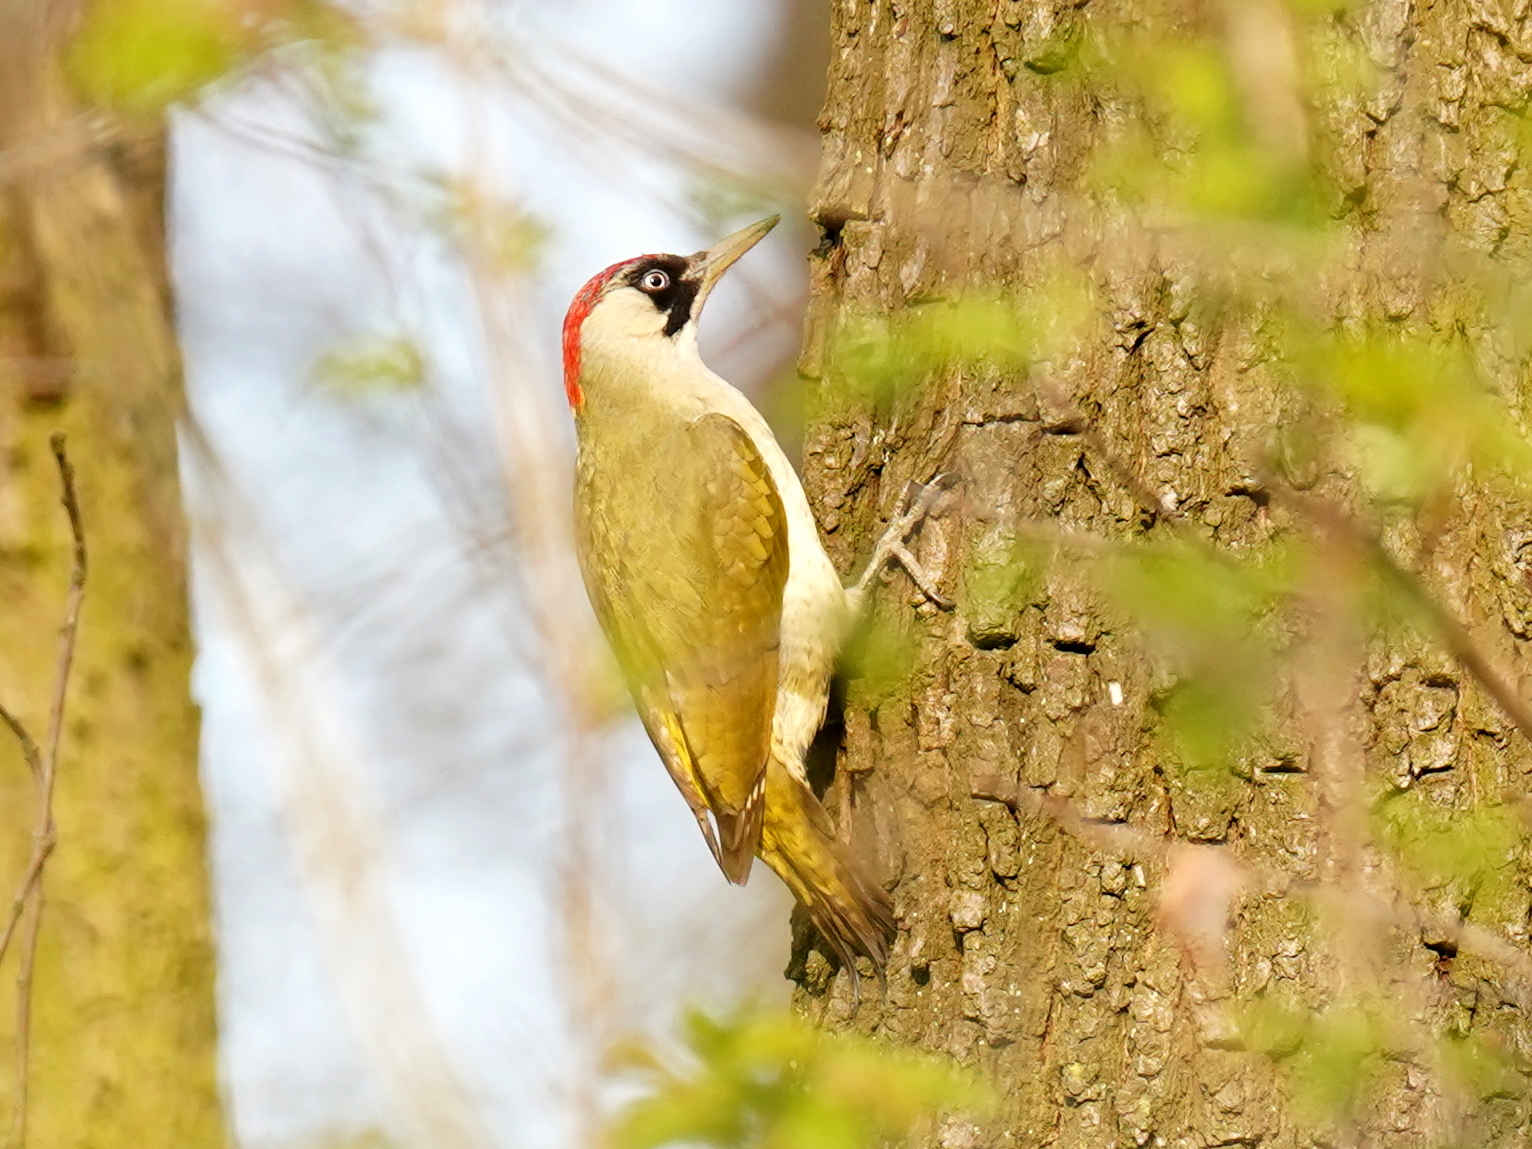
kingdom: Animalia
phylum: Chordata
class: Aves
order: Piciformes
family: Picidae
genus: Picus
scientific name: Picus viridis
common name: European green woodpecker
